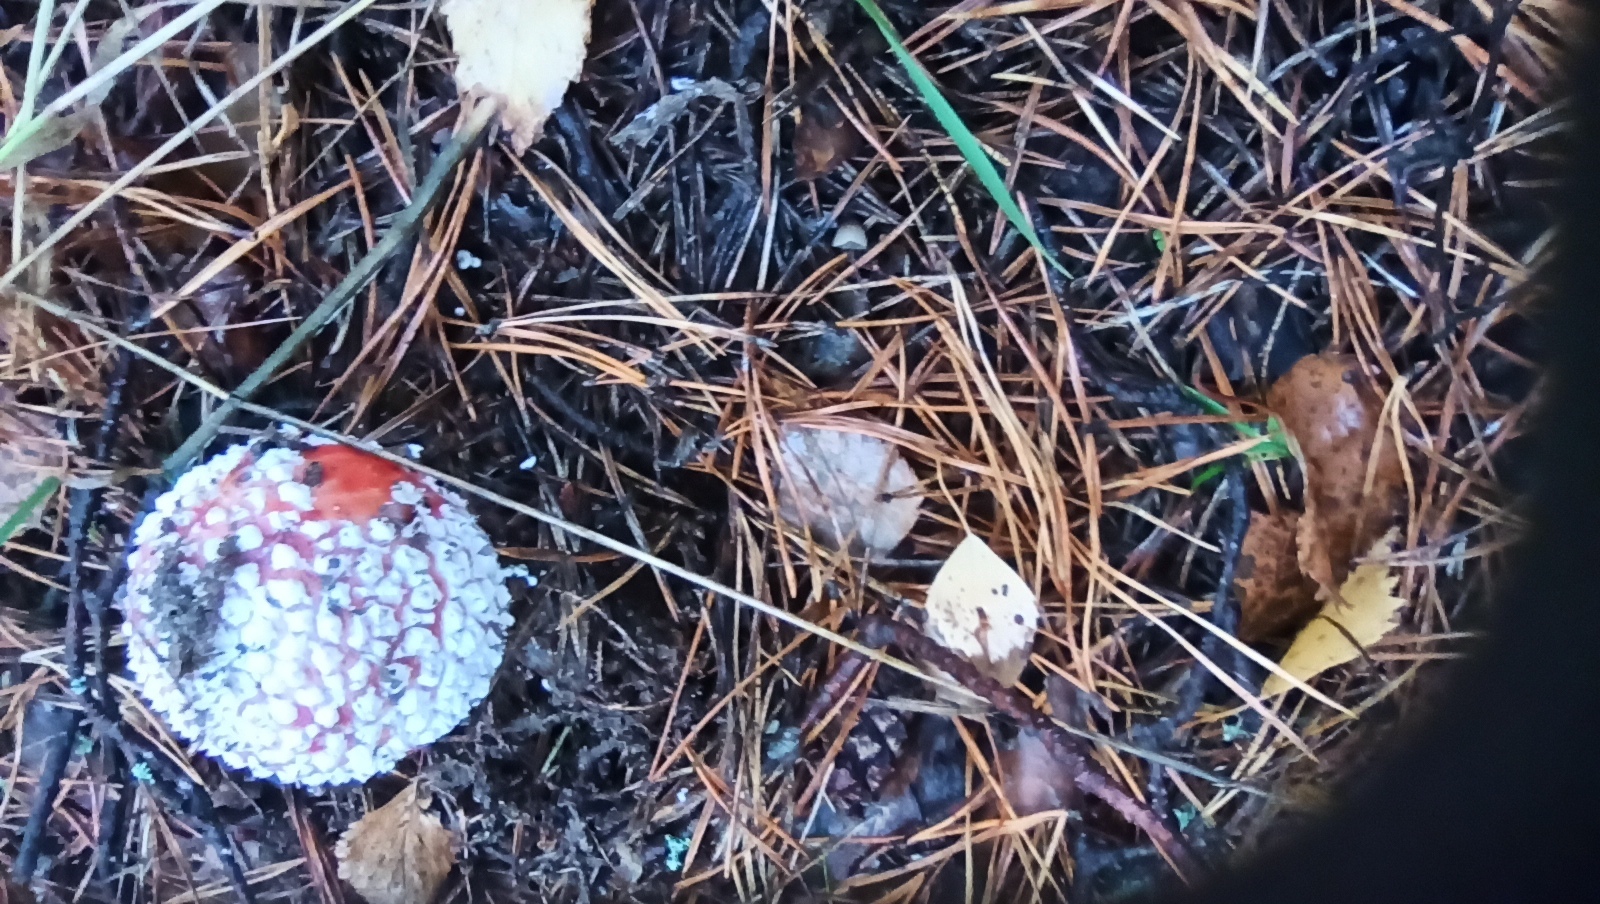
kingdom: Fungi
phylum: Basidiomycota
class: Agaricomycetes
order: Agaricales
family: Amanitaceae
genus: Amanita
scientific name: Amanita muscaria
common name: Fly agaric
